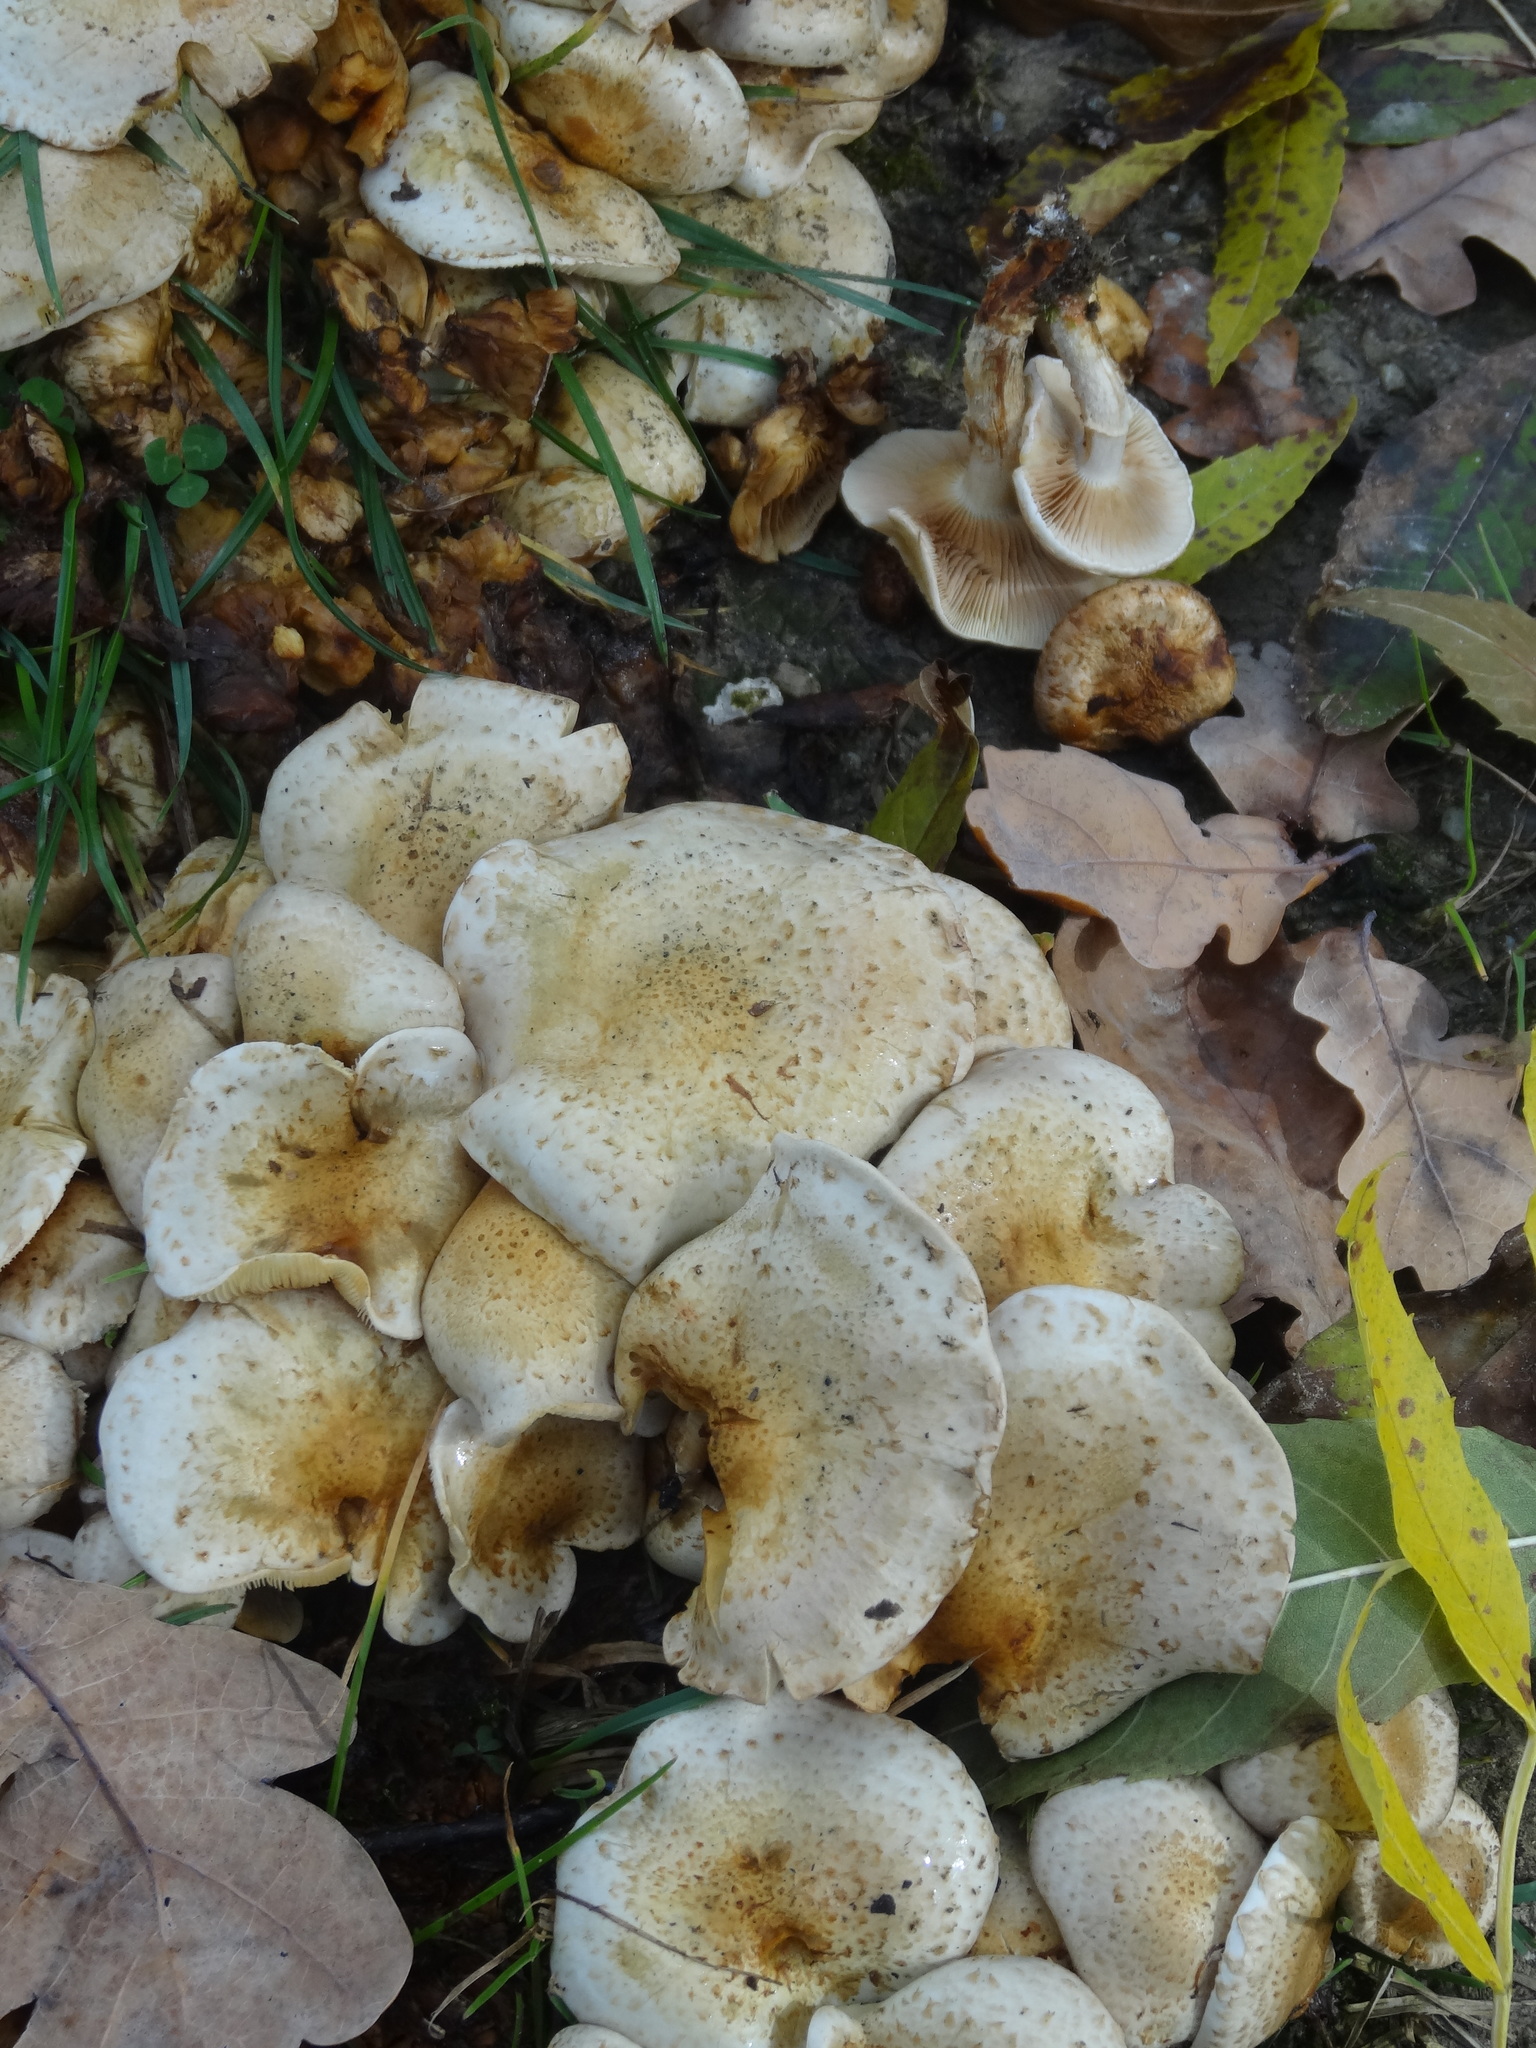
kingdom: Fungi
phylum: Basidiomycota
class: Agaricomycetes
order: Agaricales
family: Strophariaceae
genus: Pholiota
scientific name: Pholiota gummosa
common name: Sticky scalycap
